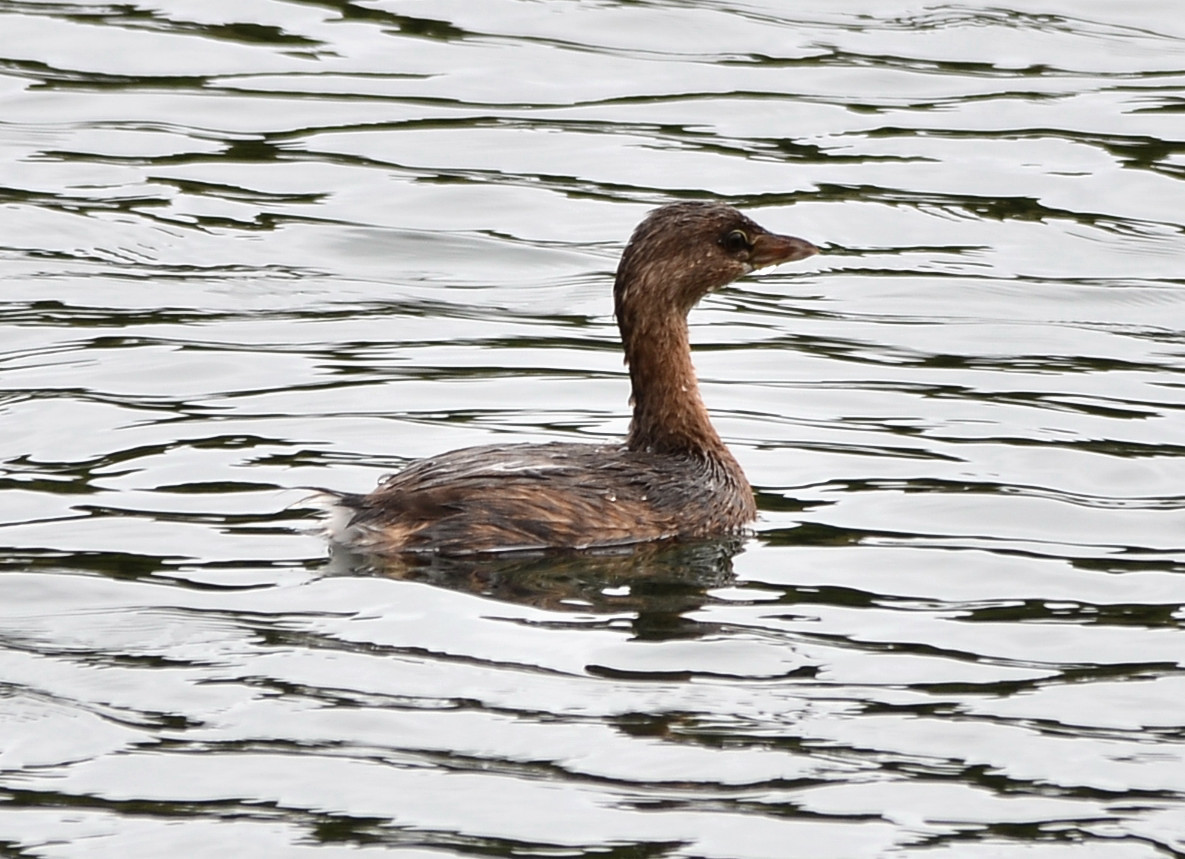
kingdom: Animalia
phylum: Chordata
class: Aves
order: Podicipediformes
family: Podicipedidae
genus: Podilymbus
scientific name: Podilymbus podiceps
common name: Pied-billed grebe
